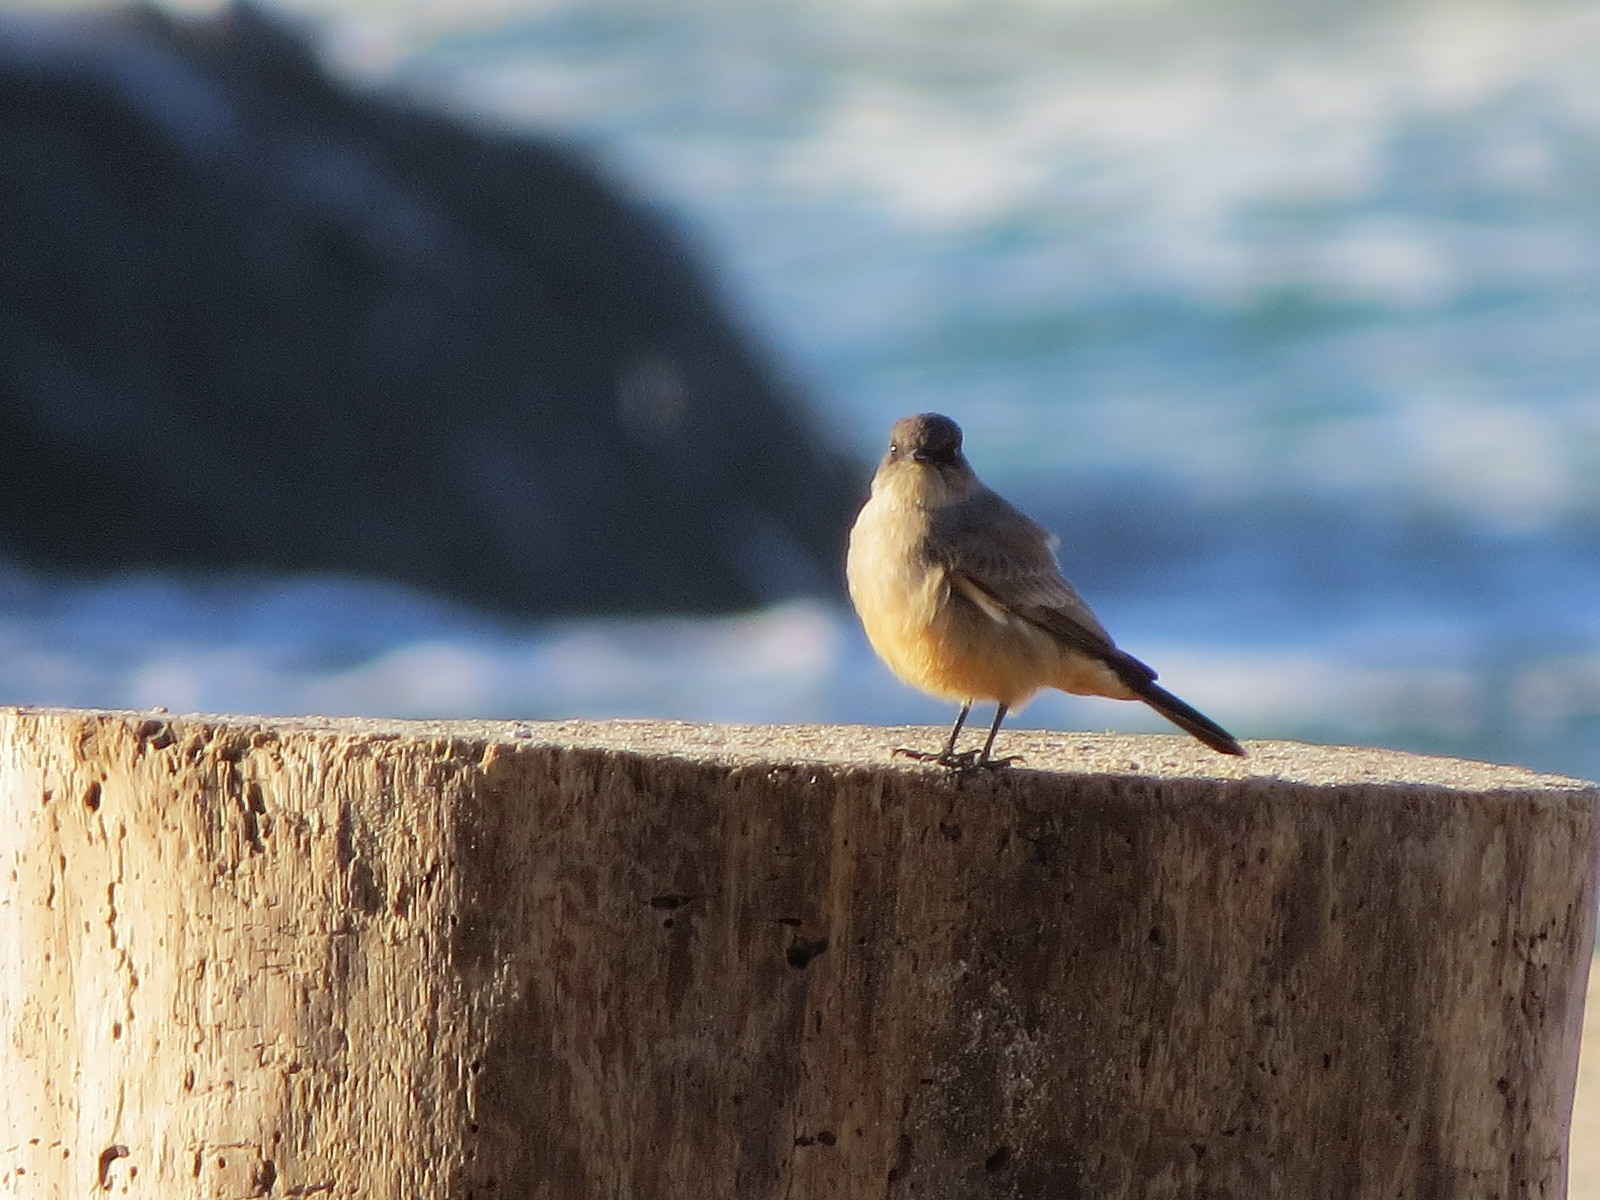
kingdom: Animalia
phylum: Chordata
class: Aves
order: Passeriformes
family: Tyrannidae
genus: Sayornis
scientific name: Sayornis saya
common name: Say's phoebe
